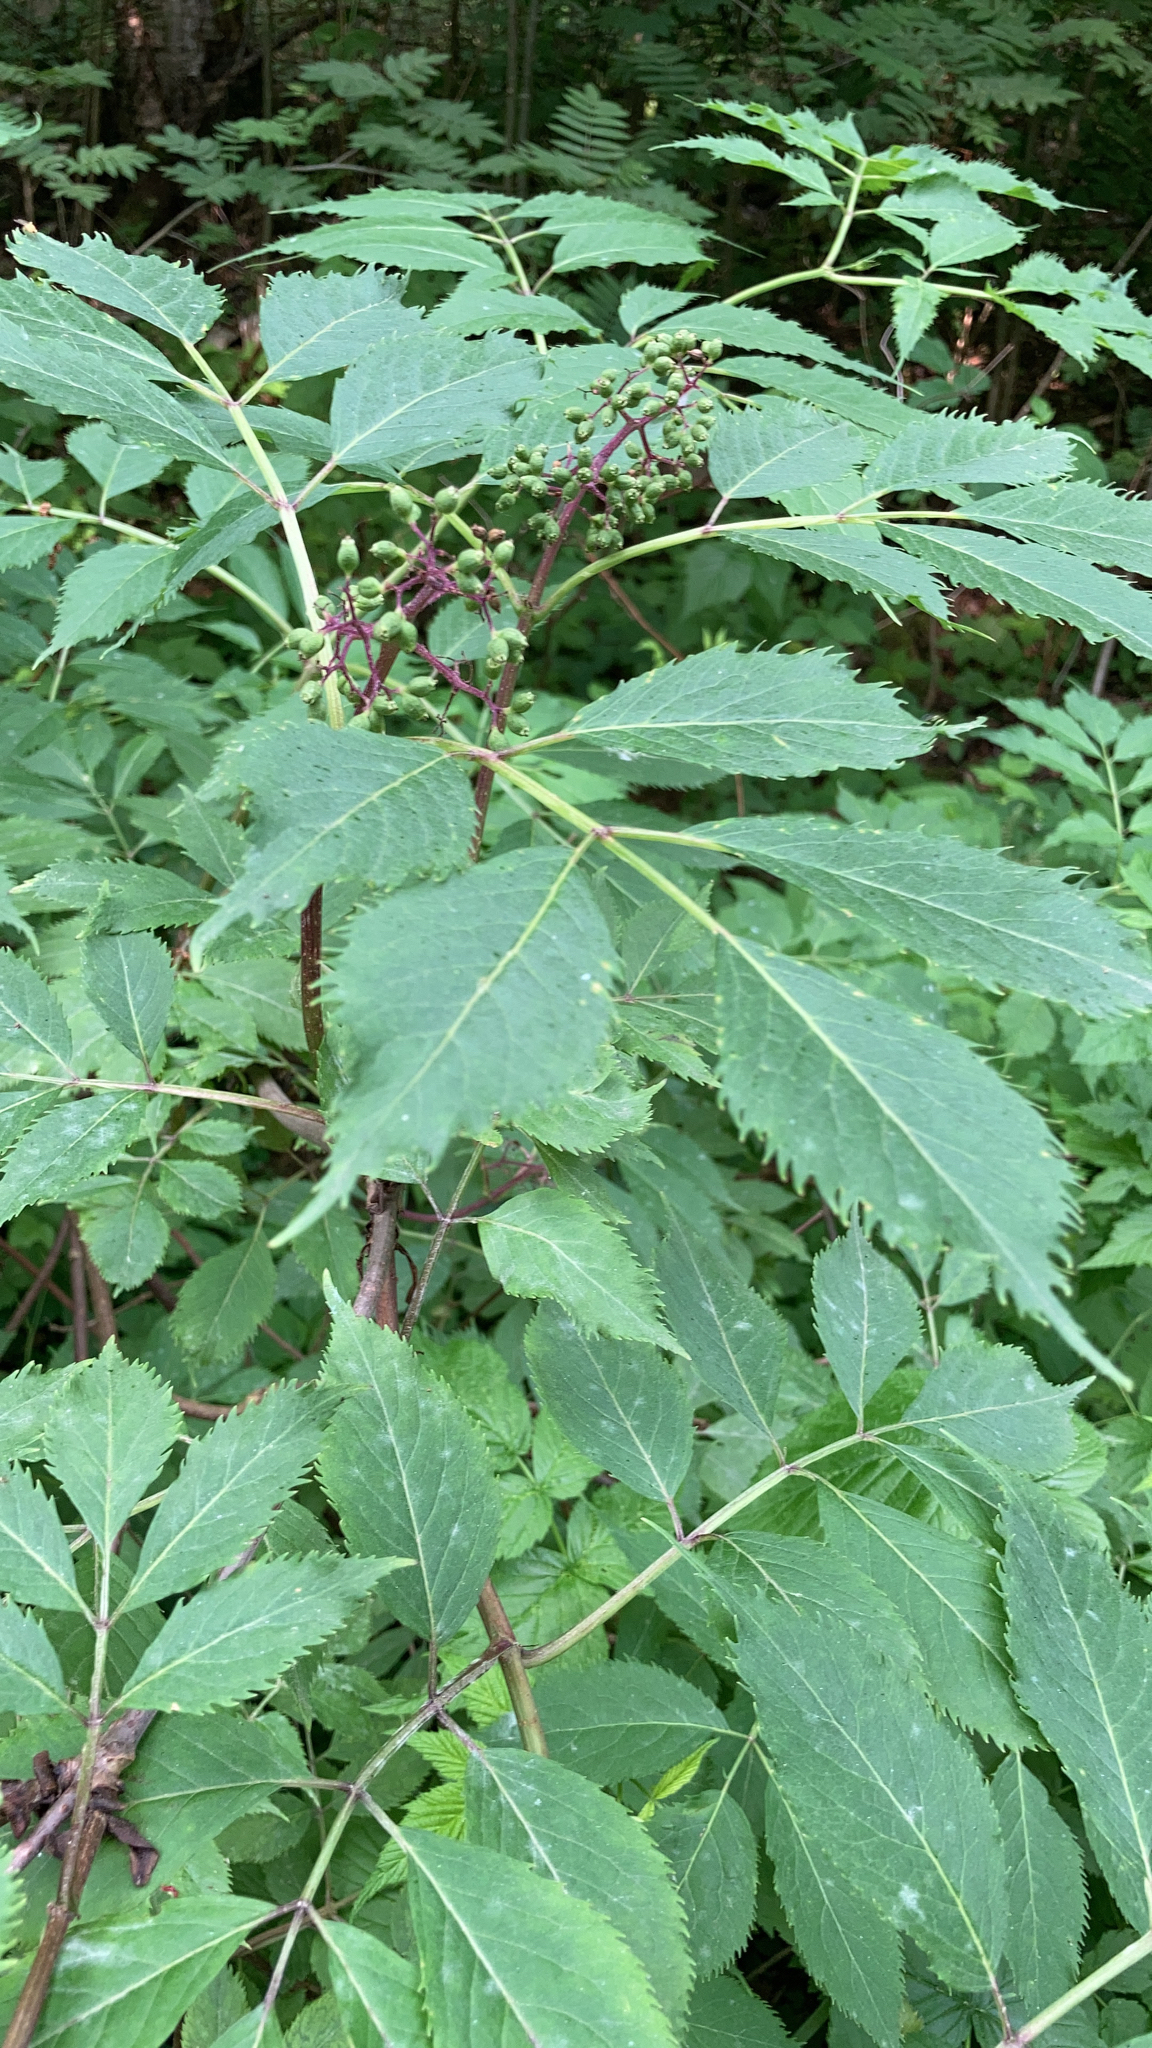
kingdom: Plantae
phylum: Tracheophyta
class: Magnoliopsida
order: Dipsacales
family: Viburnaceae
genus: Sambucus
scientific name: Sambucus racemosa
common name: Red-berried elder
